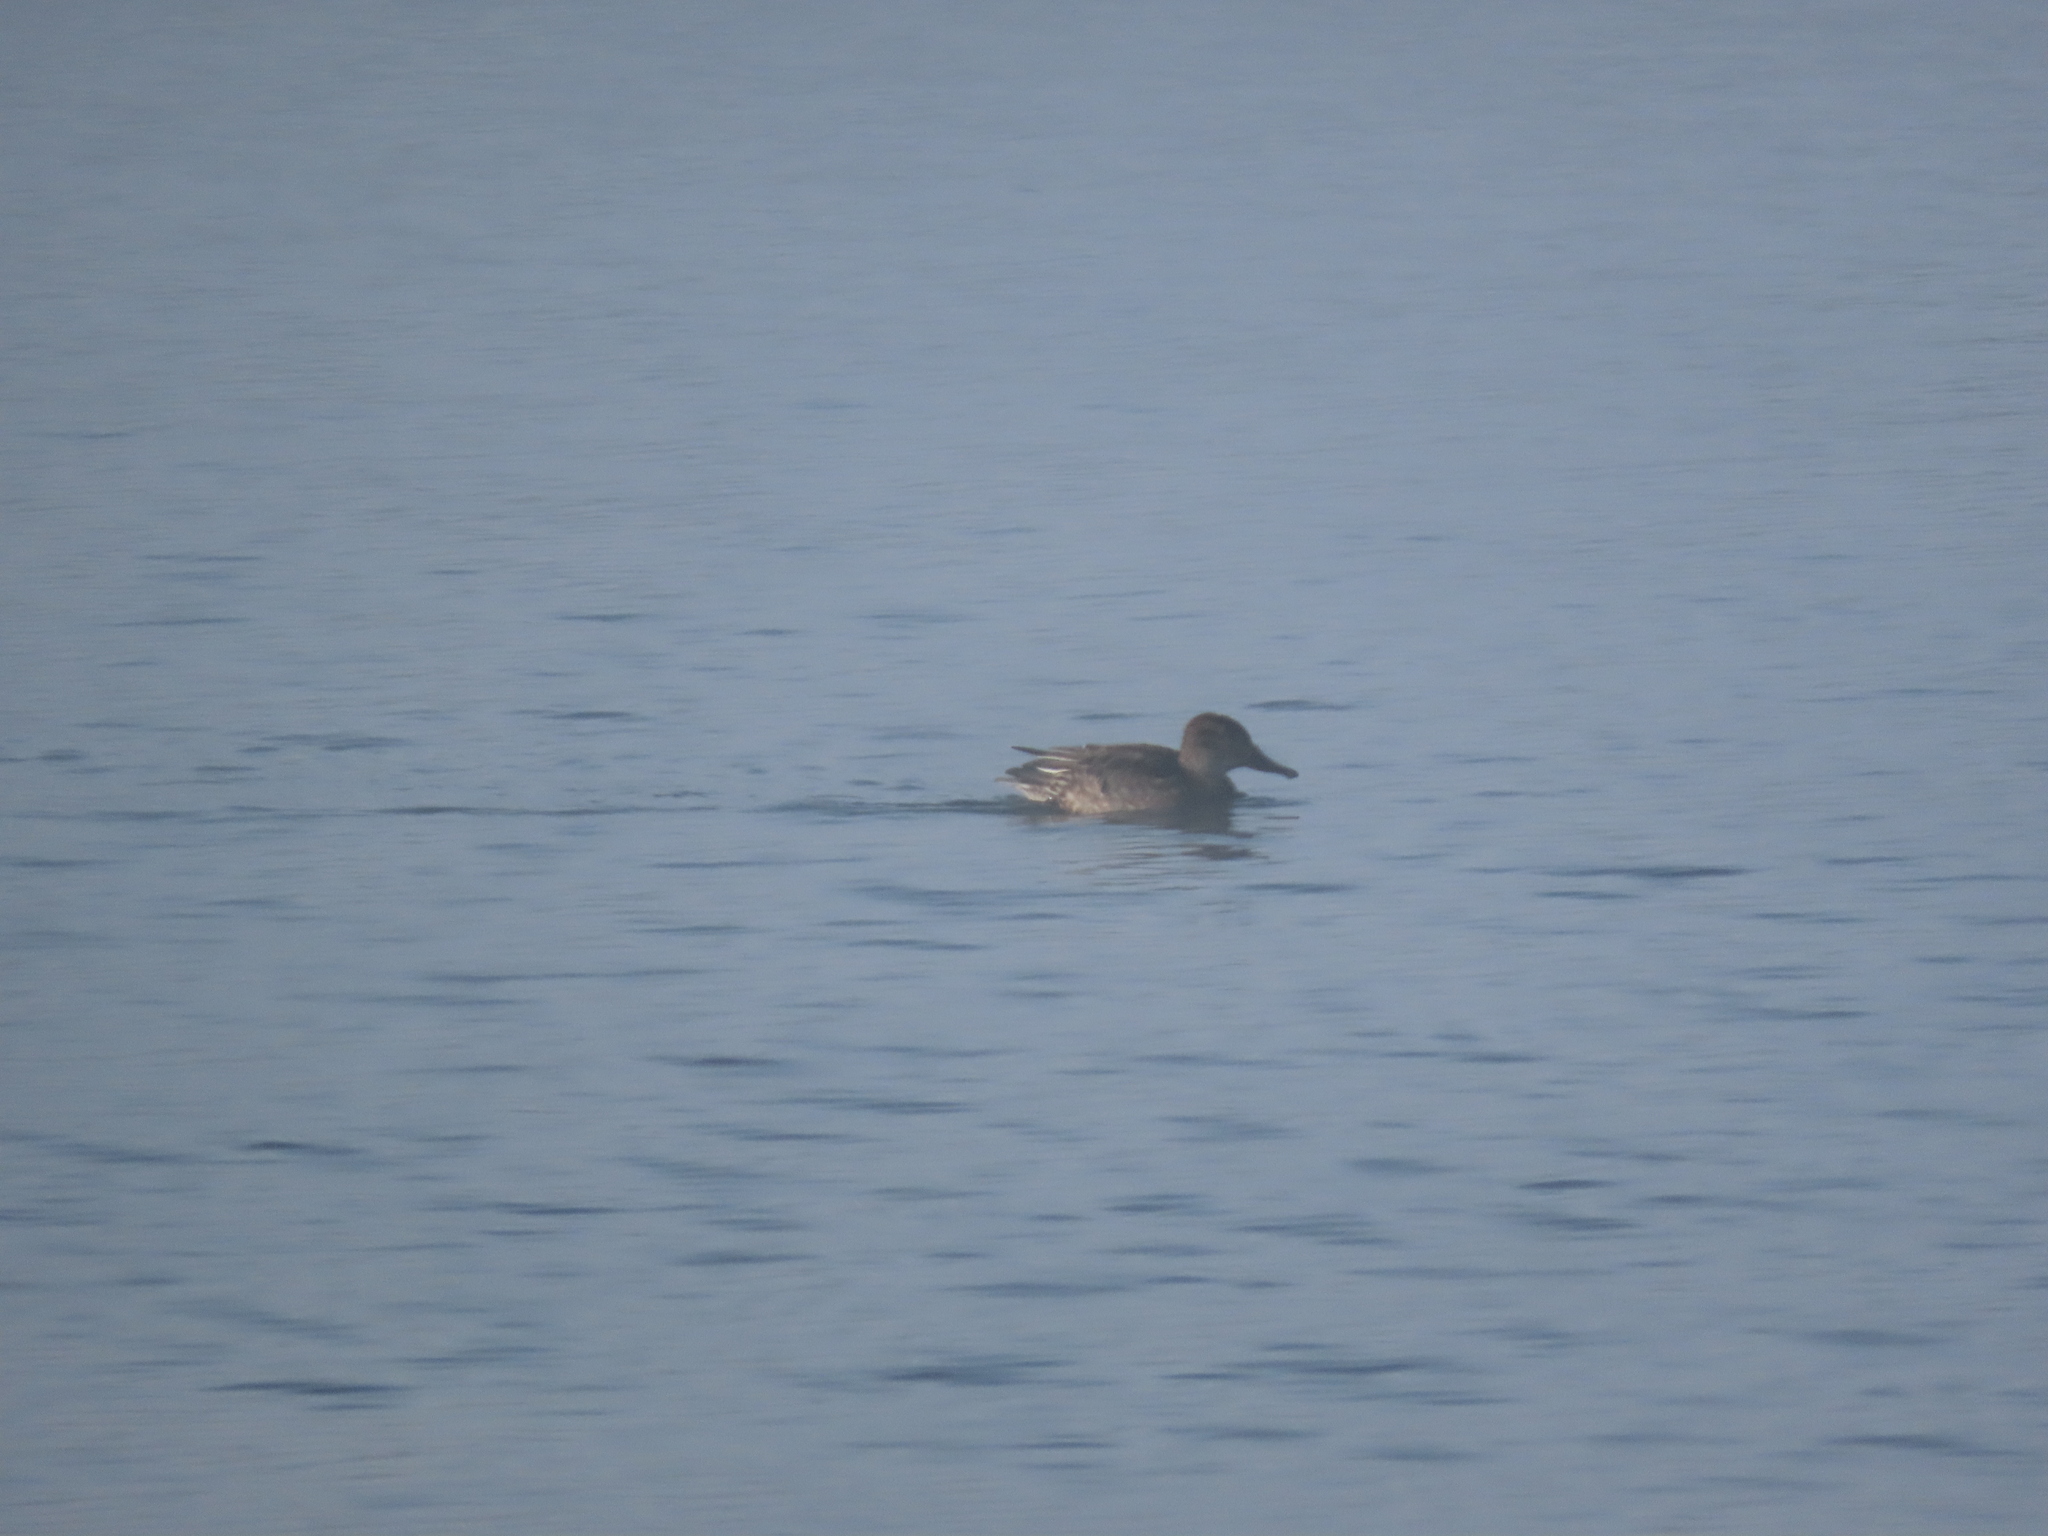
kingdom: Animalia
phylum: Chordata
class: Aves
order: Anseriformes
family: Anatidae
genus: Anas
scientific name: Anas crecca
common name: Eurasian teal
